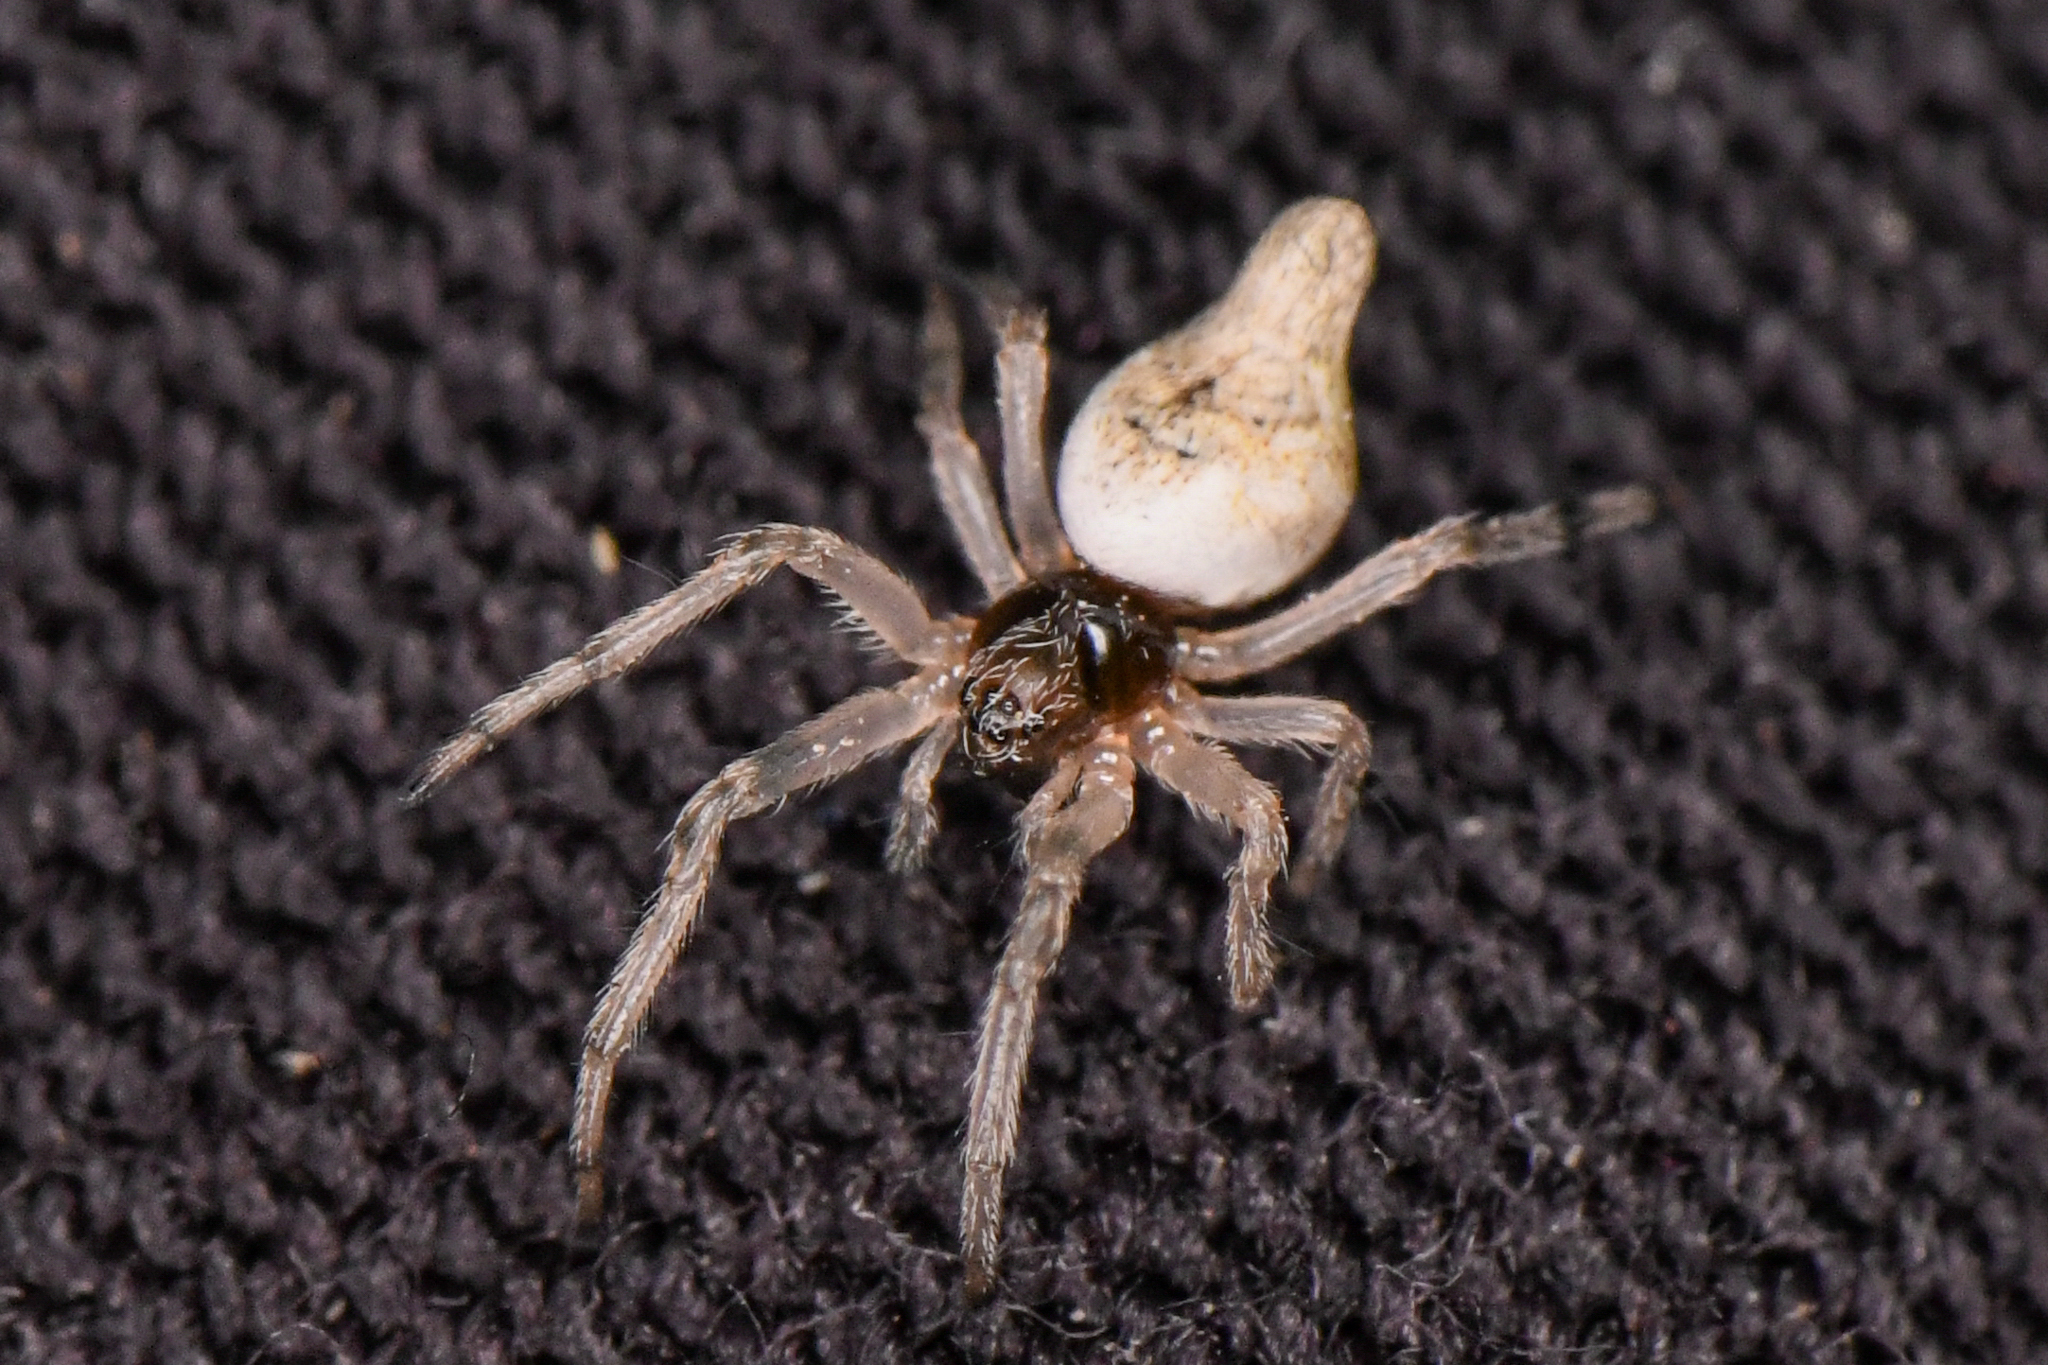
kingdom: Animalia
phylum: Arthropoda
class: Arachnida
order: Araneae
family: Araneidae
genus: Cyclosa
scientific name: Cyclosa conica
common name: Conical trashline orbweaver
